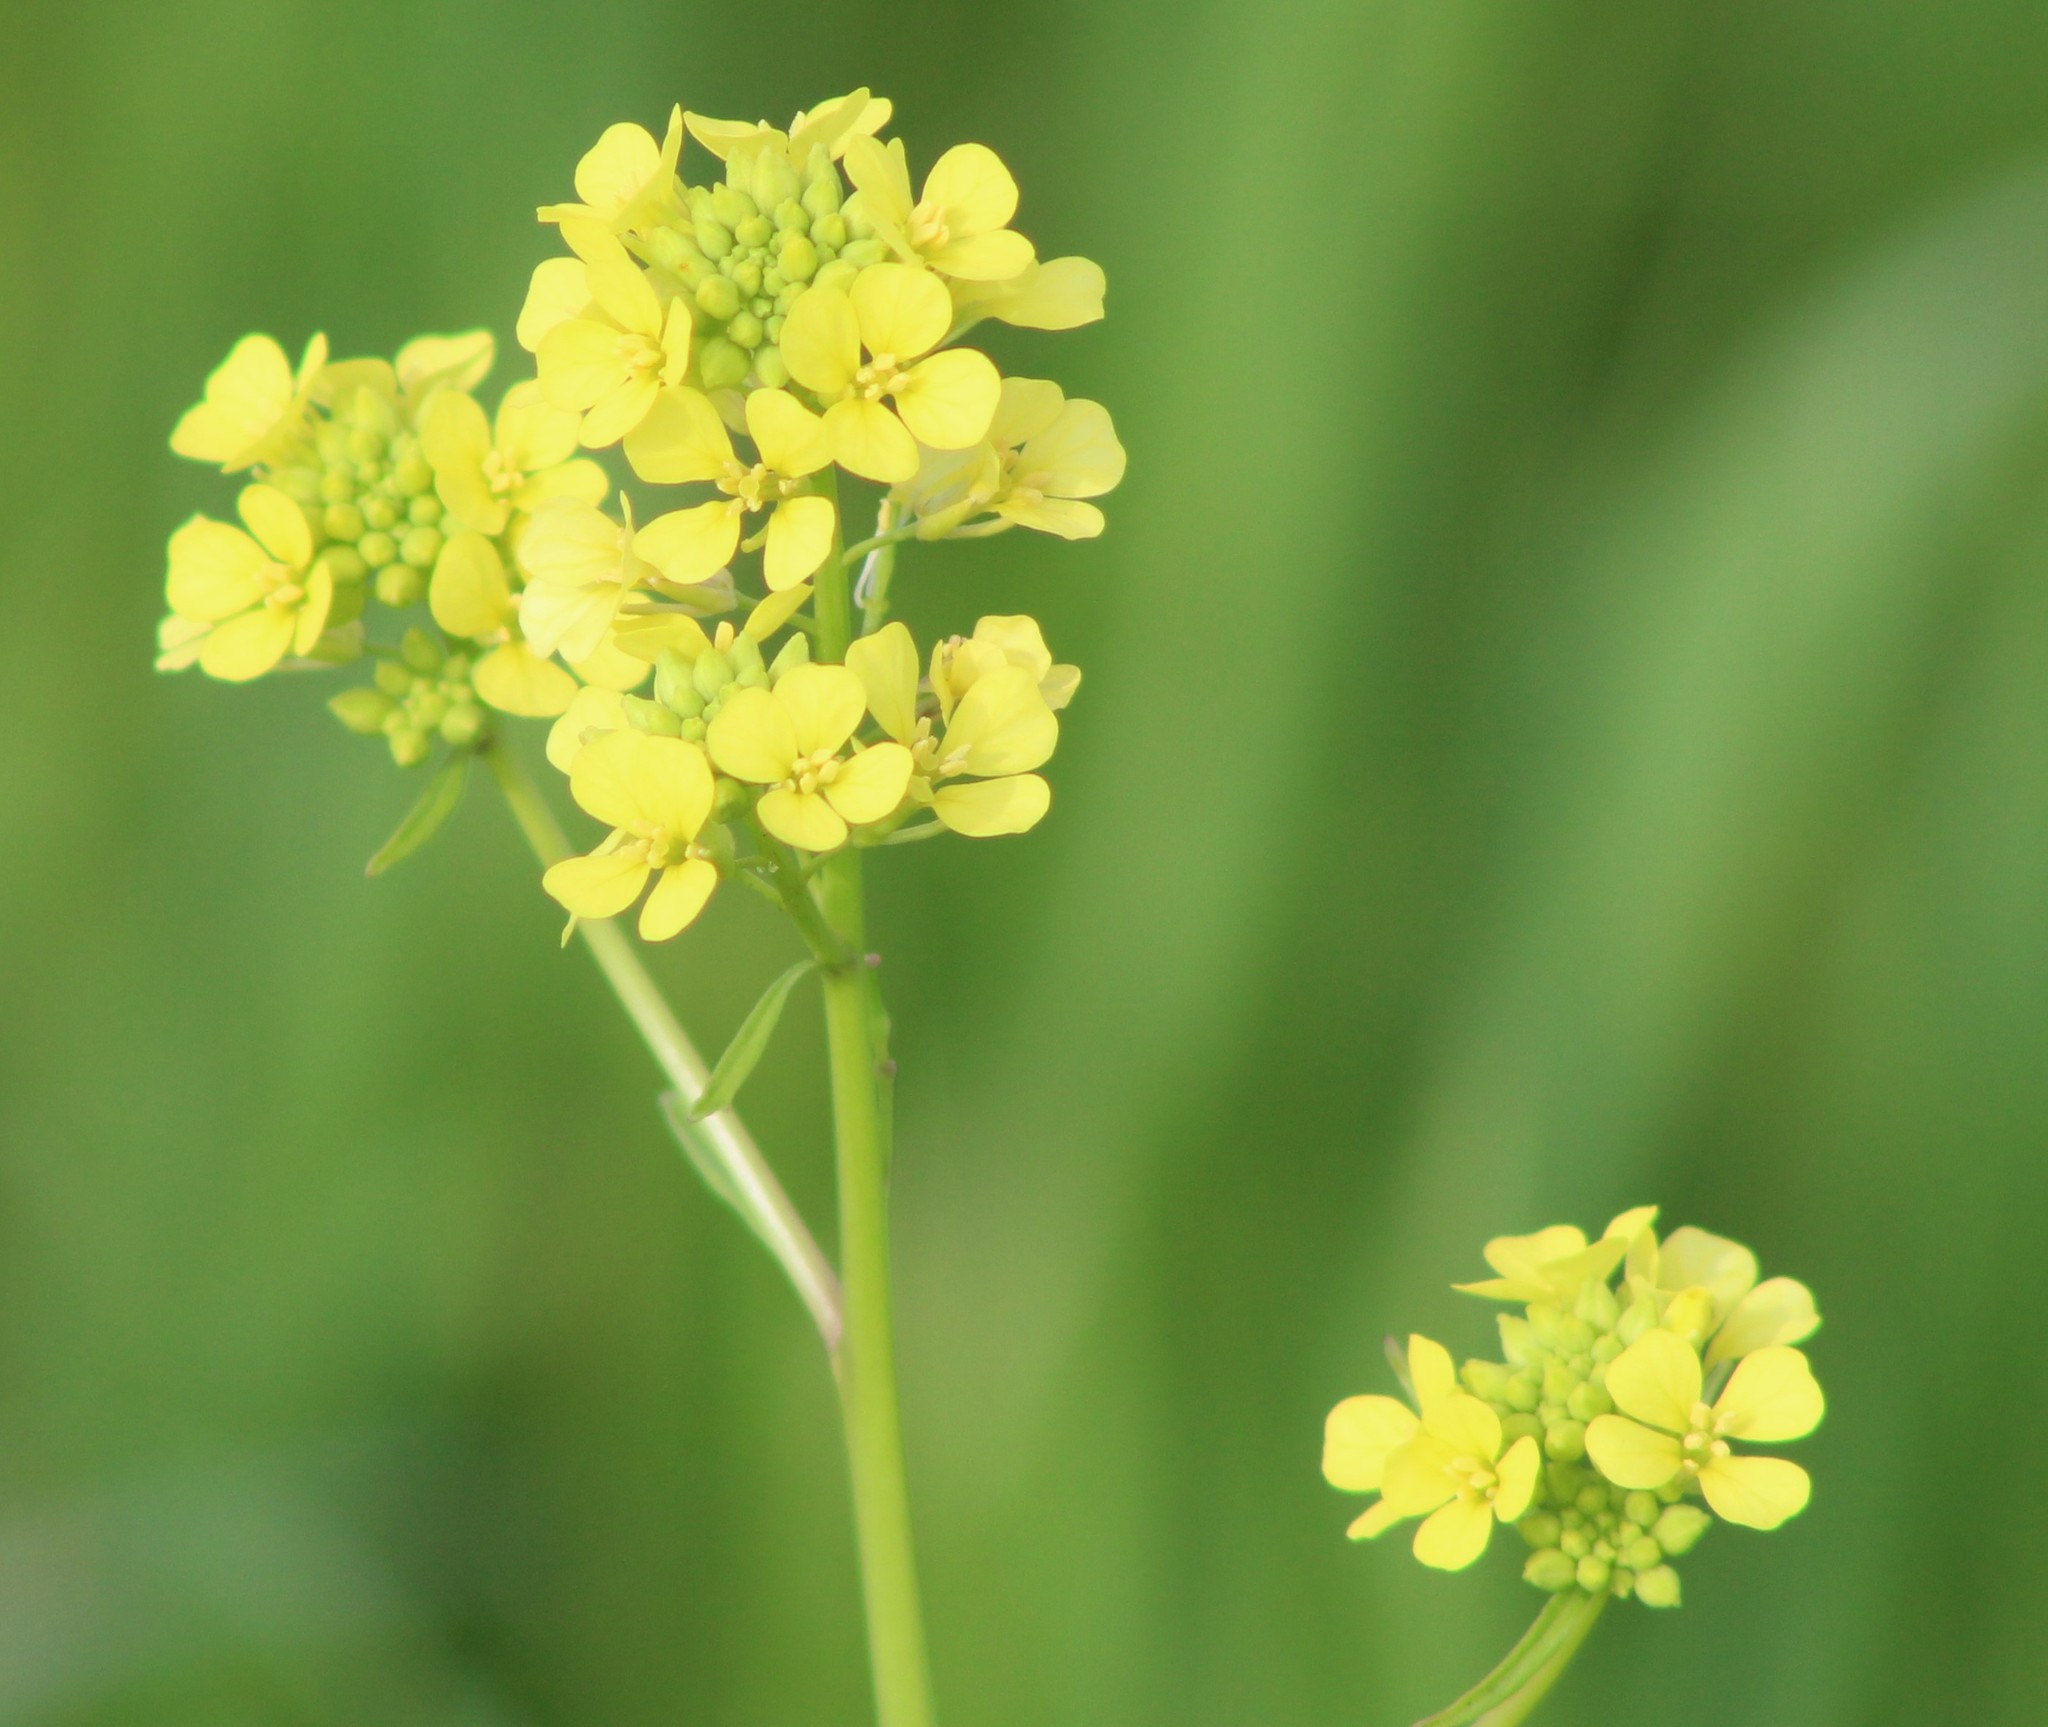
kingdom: Plantae
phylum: Tracheophyta
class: Magnoliopsida
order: Brassicales
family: Brassicaceae
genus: Rapistrum
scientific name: Rapistrum rugosum
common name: Annual bastardcabbage
